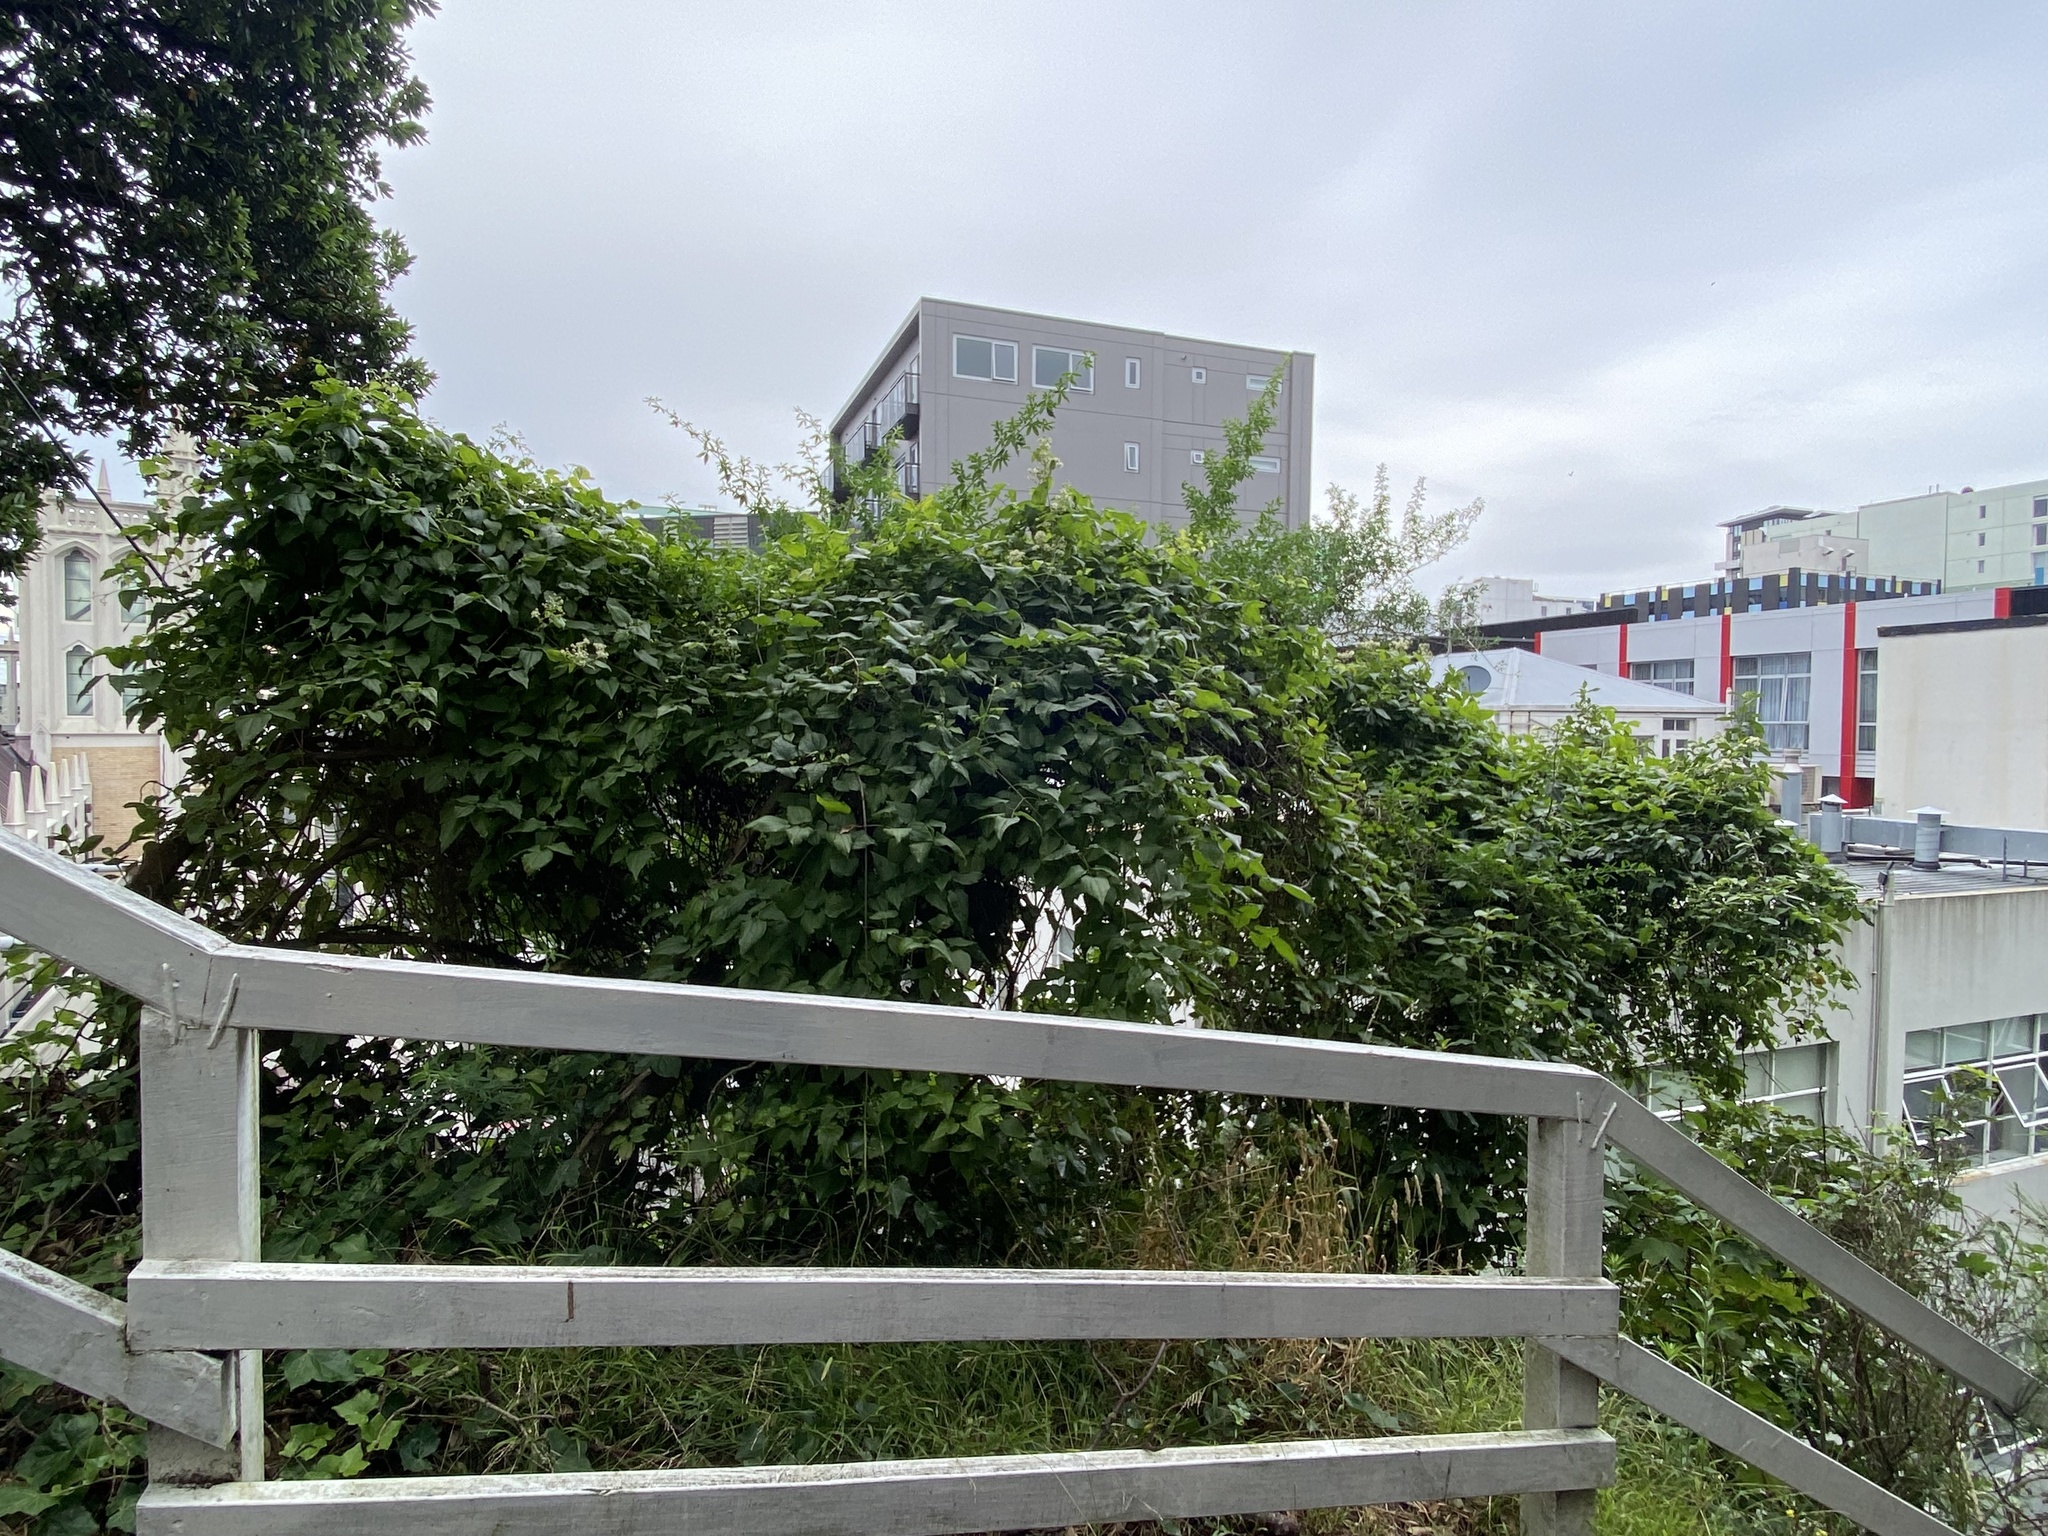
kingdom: Plantae
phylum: Tracheophyta
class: Magnoliopsida
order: Ranunculales
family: Ranunculaceae
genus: Clematis
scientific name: Clematis vitalba
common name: Evergreen clematis
